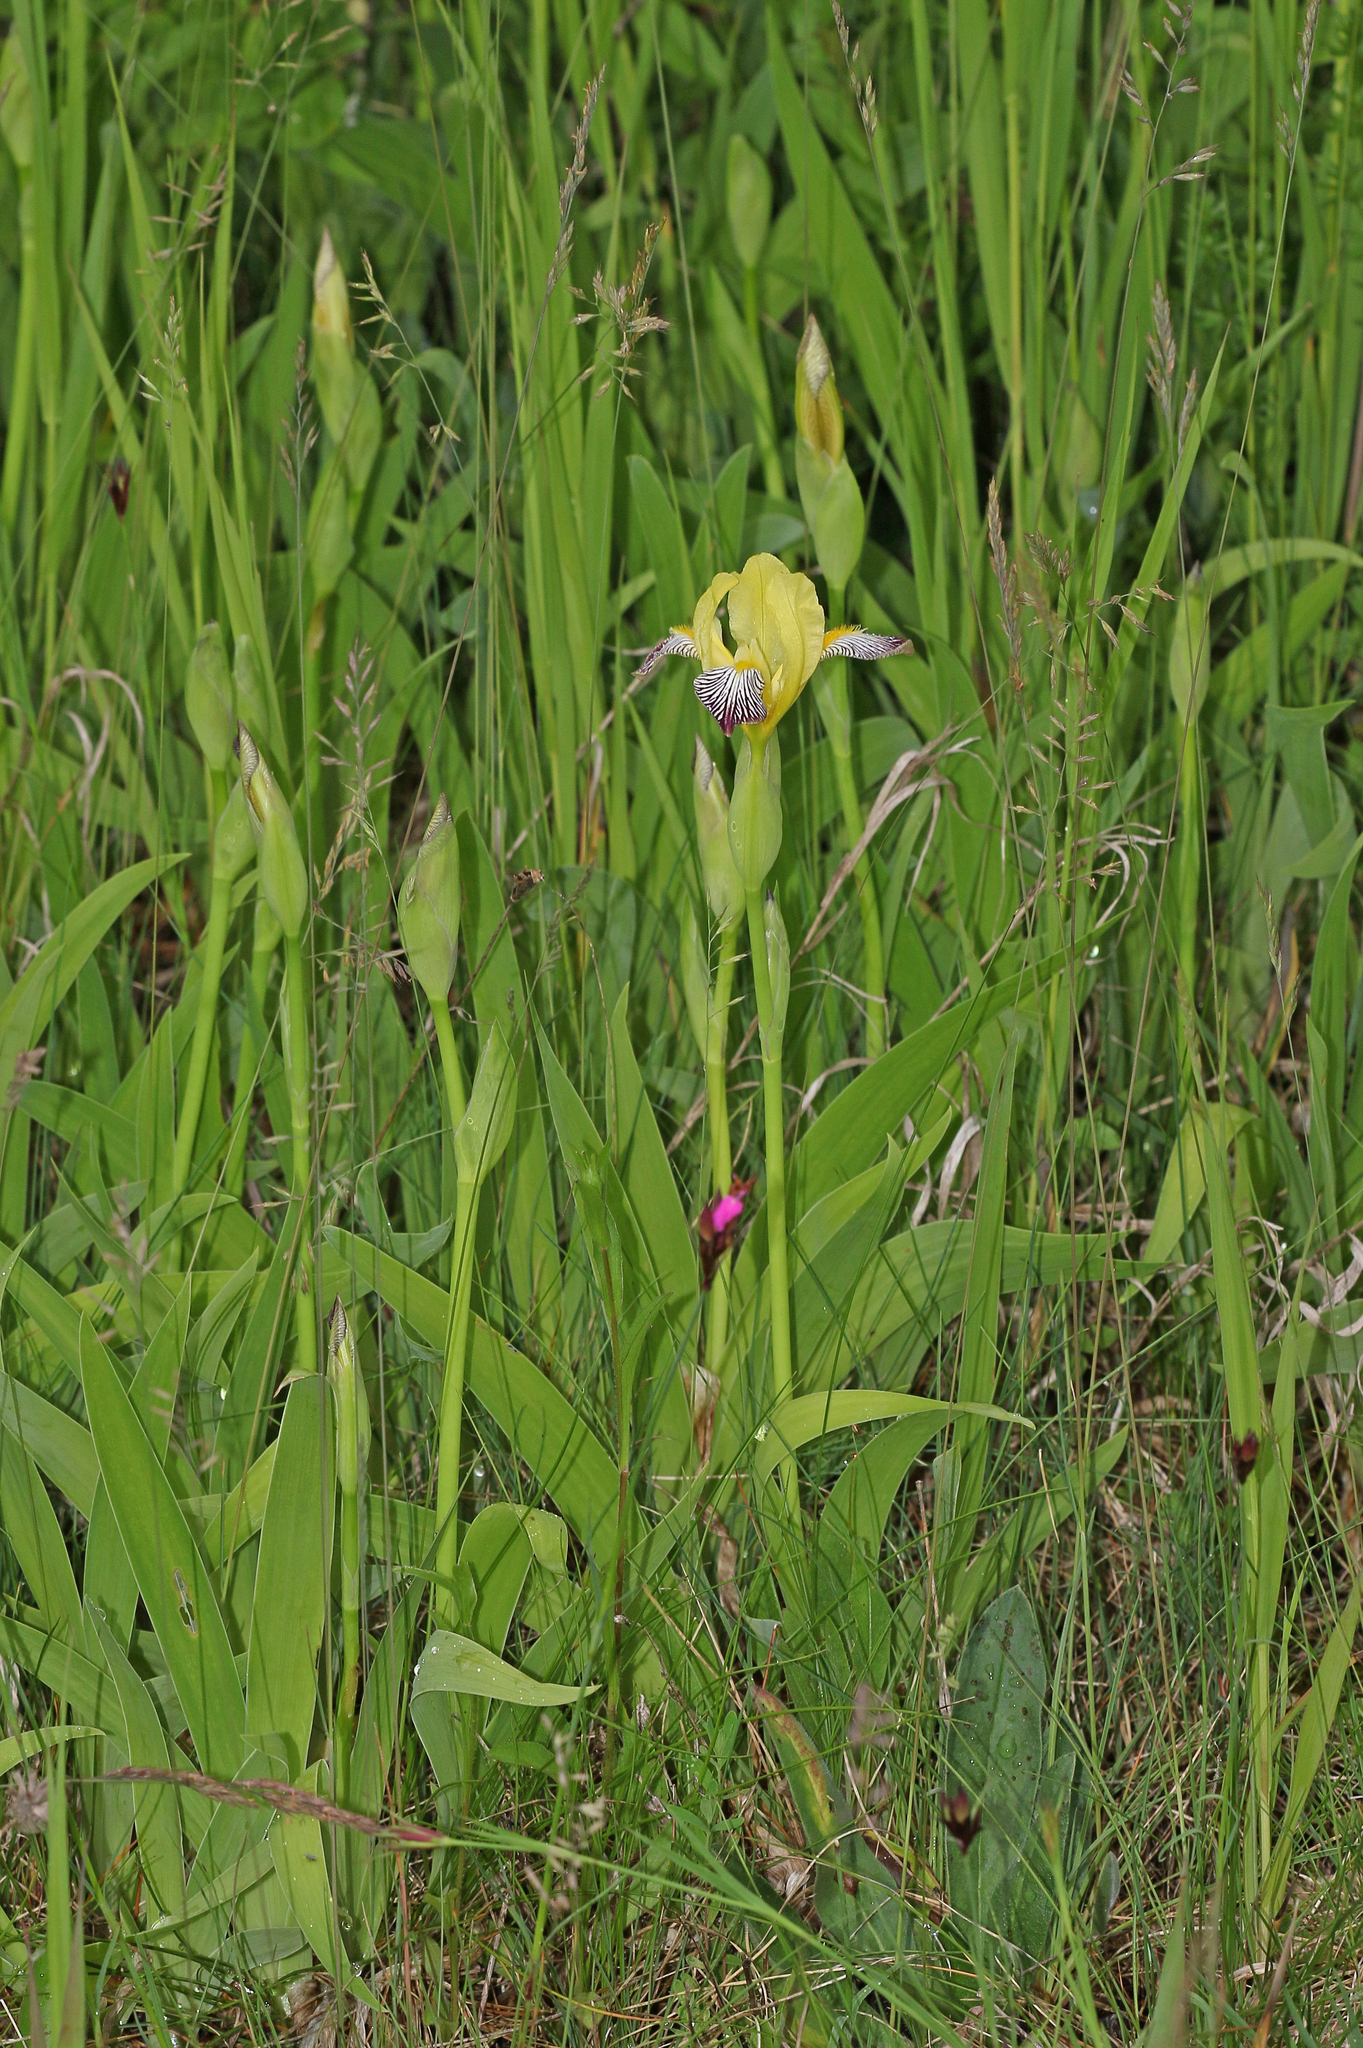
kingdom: Plantae
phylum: Tracheophyta
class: Liliopsida
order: Asparagales
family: Iridaceae
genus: Iris
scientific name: Iris variegata
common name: Hungarian iris
